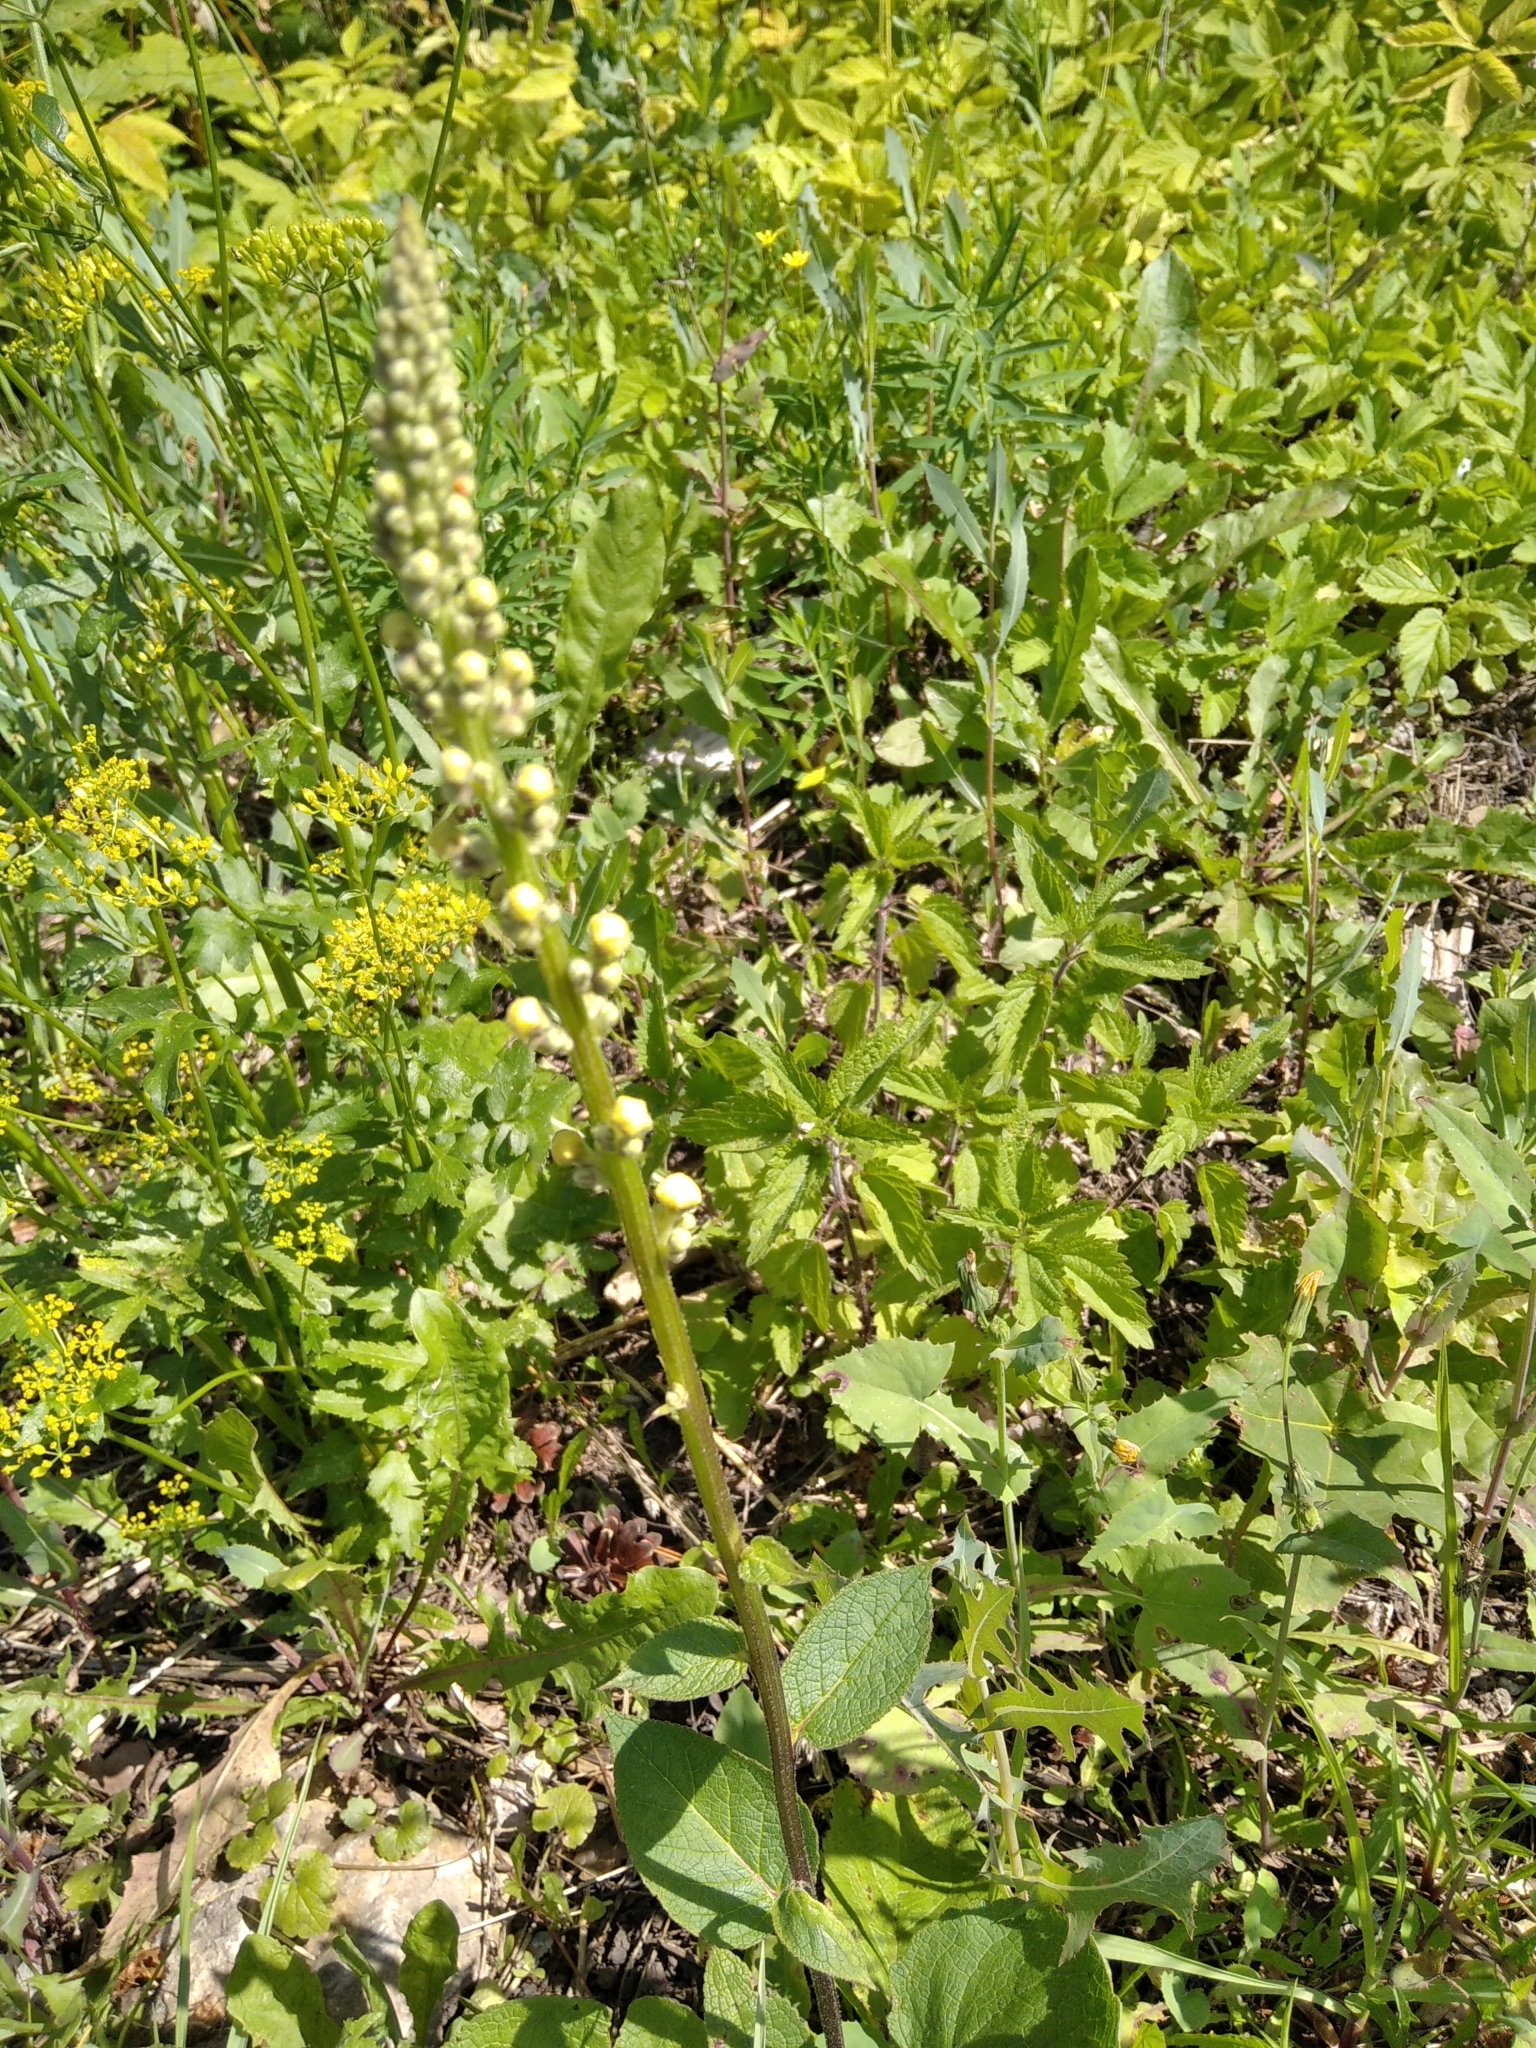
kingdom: Plantae
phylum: Tracheophyta
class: Magnoliopsida
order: Lamiales
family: Scrophulariaceae
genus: Verbascum
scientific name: Verbascum nigrum
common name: Dark mullein
